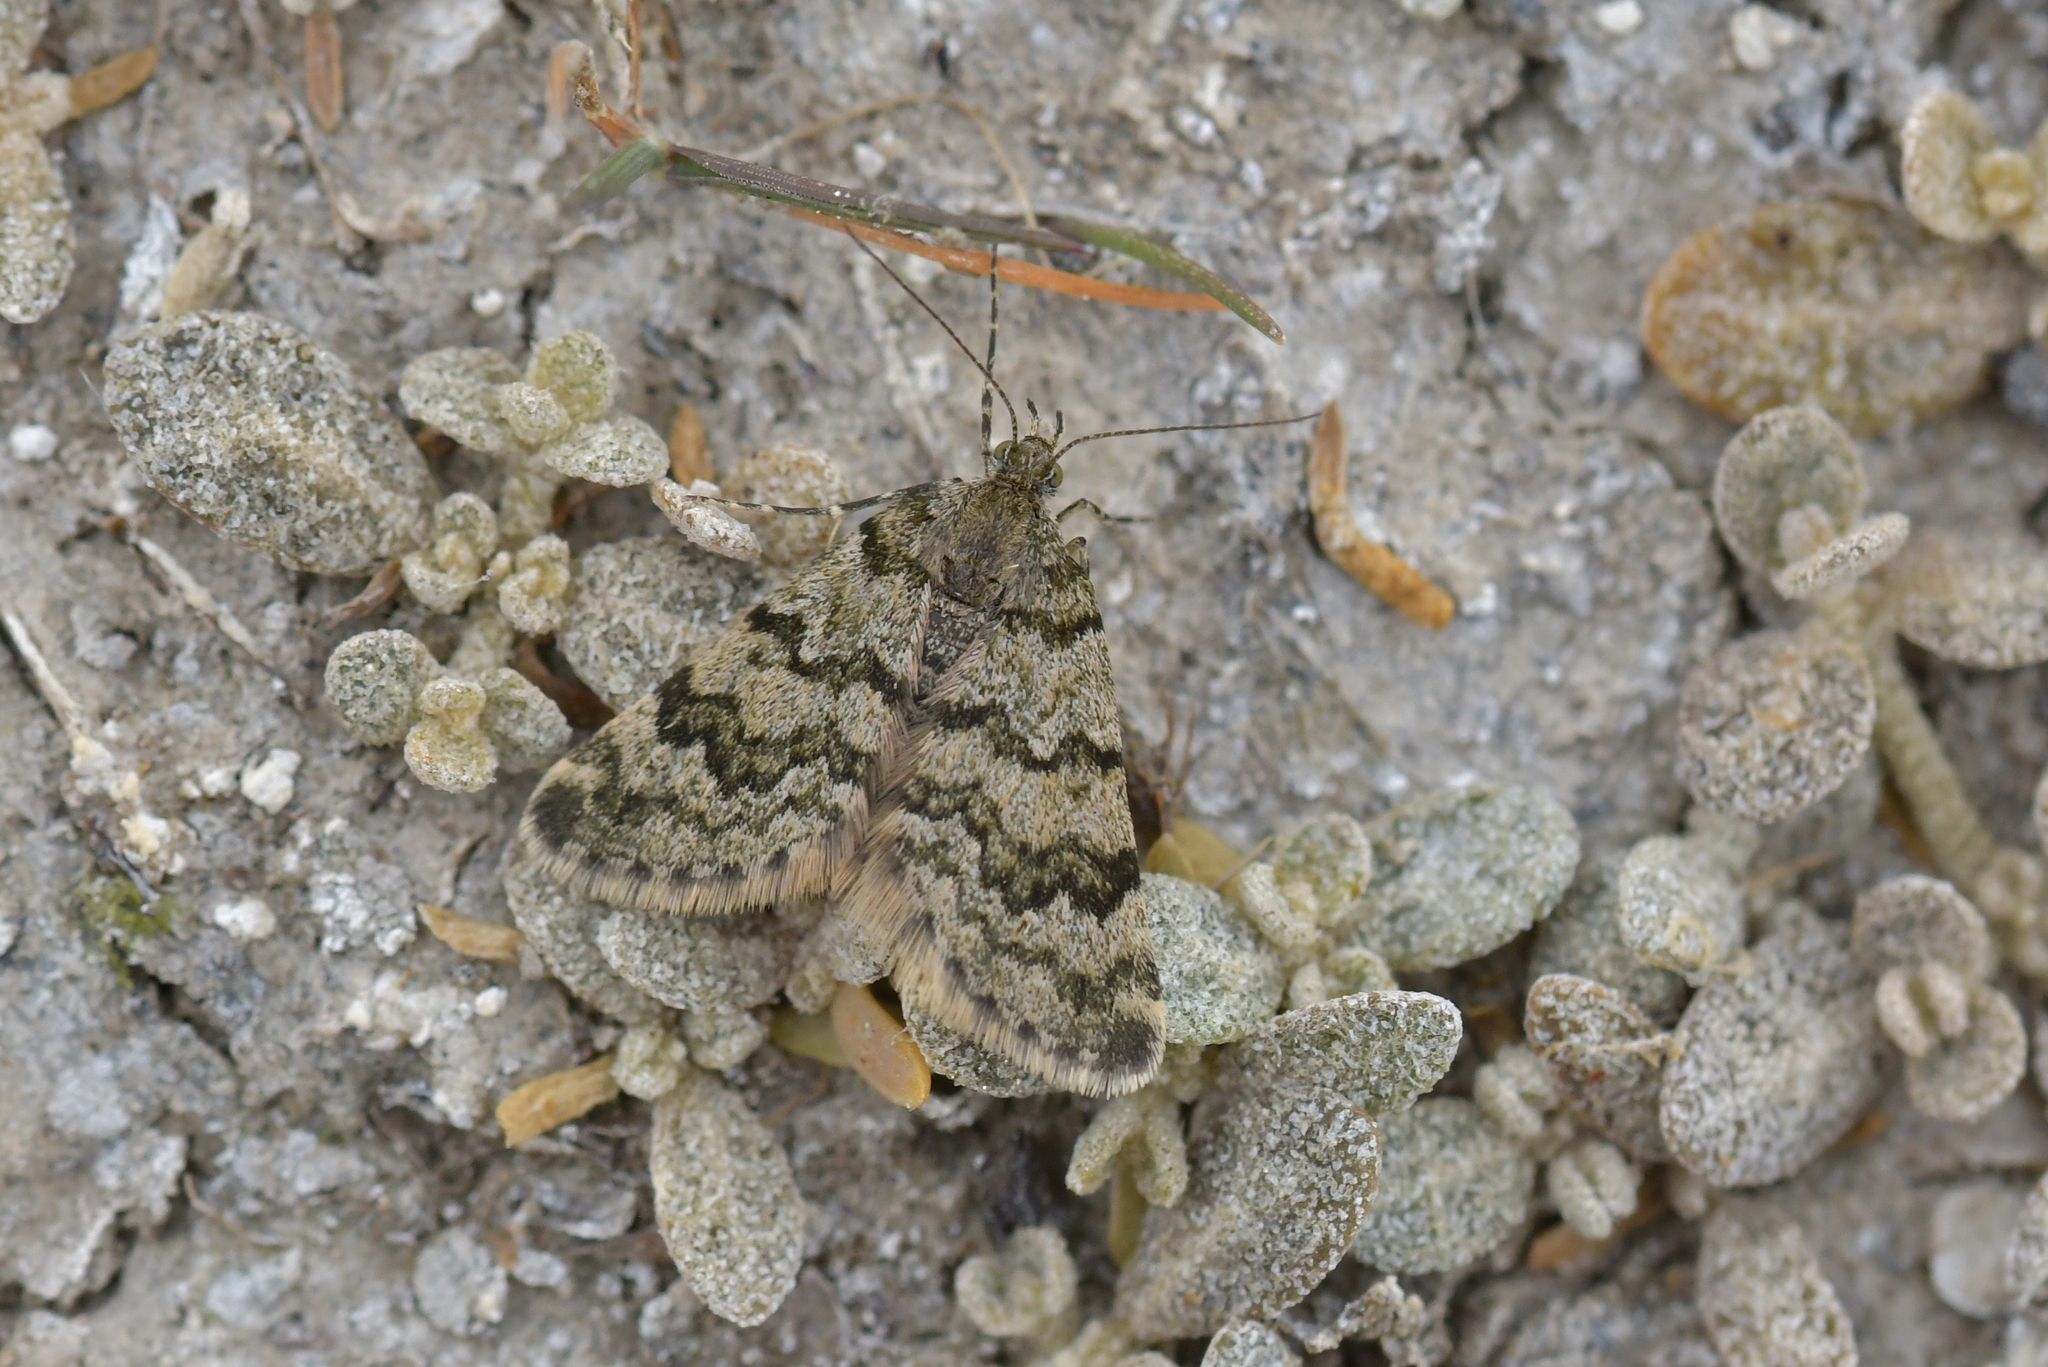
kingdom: Animalia
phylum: Arthropoda
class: Insecta
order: Lepidoptera
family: Geometridae
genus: Paranotoreas
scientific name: Paranotoreas fulva
